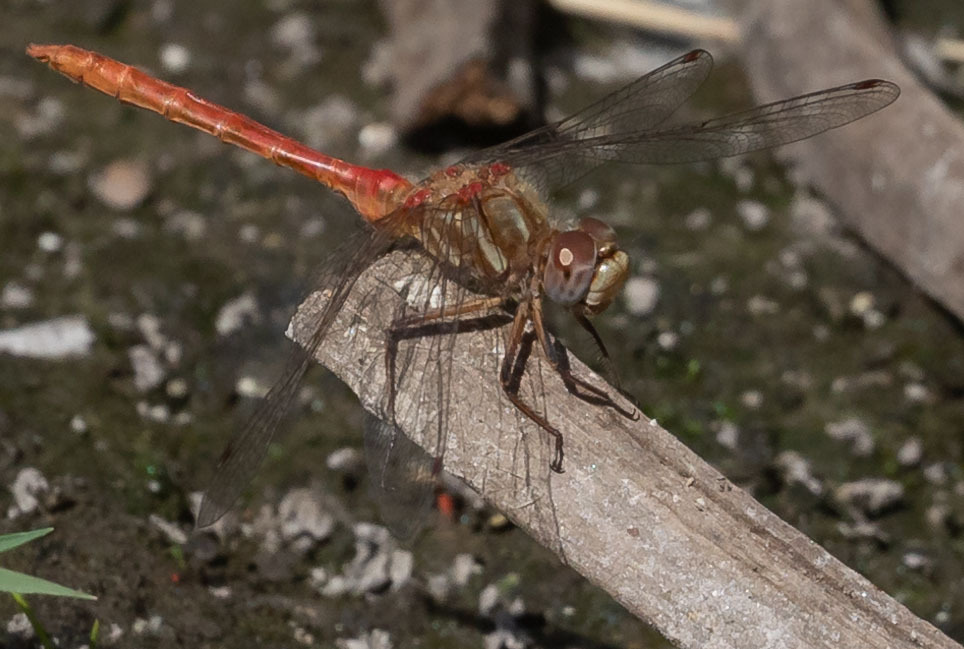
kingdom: Animalia
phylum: Arthropoda
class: Insecta
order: Odonata
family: Libellulidae
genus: Sympetrum
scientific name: Sympetrum pallipes
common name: Striped meadowhawk
